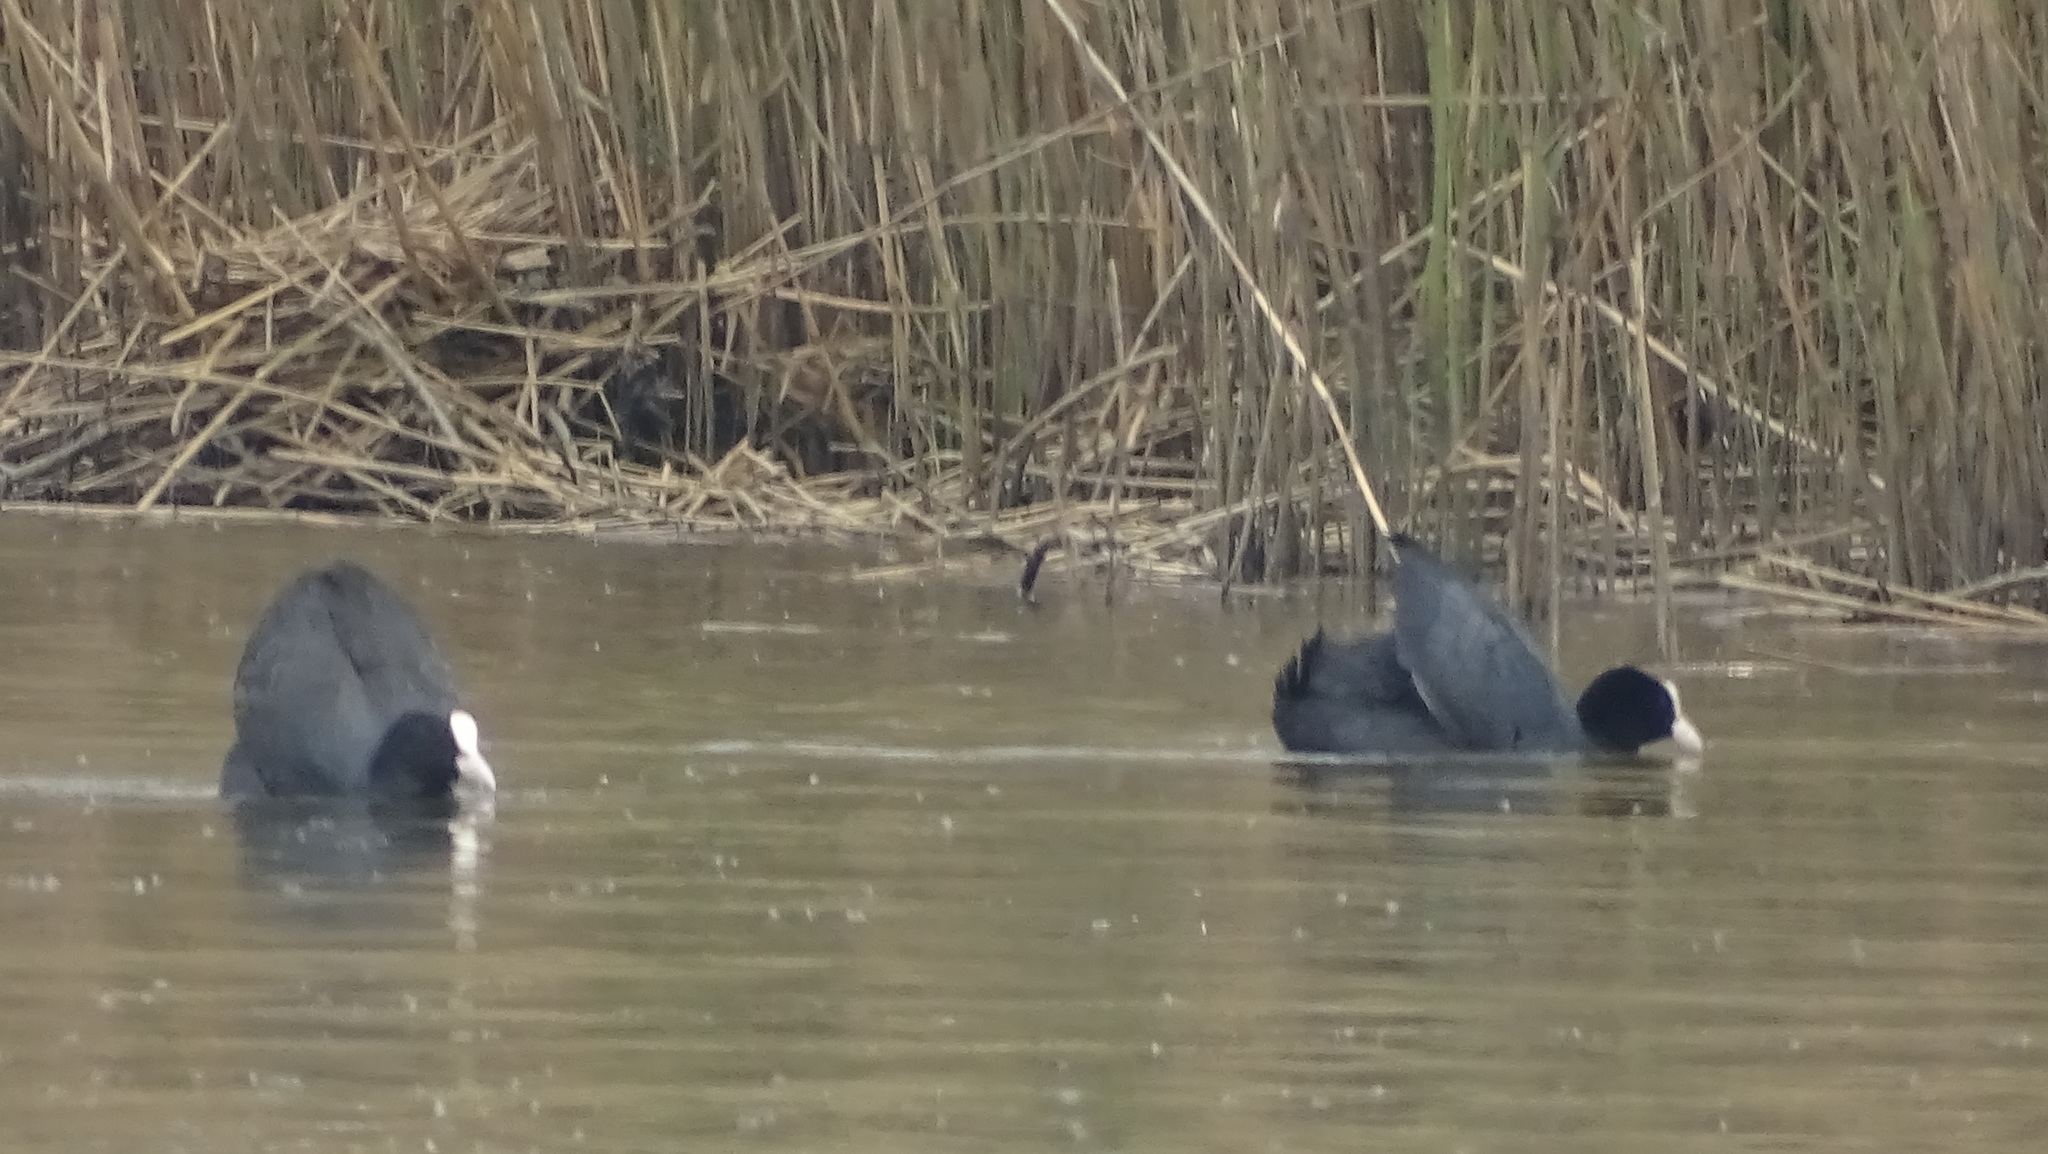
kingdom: Animalia
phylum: Chordata
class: Aves
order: Gruiformes
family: Rallidae
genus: Fulica
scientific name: Fulica atra
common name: Eurasian coot
